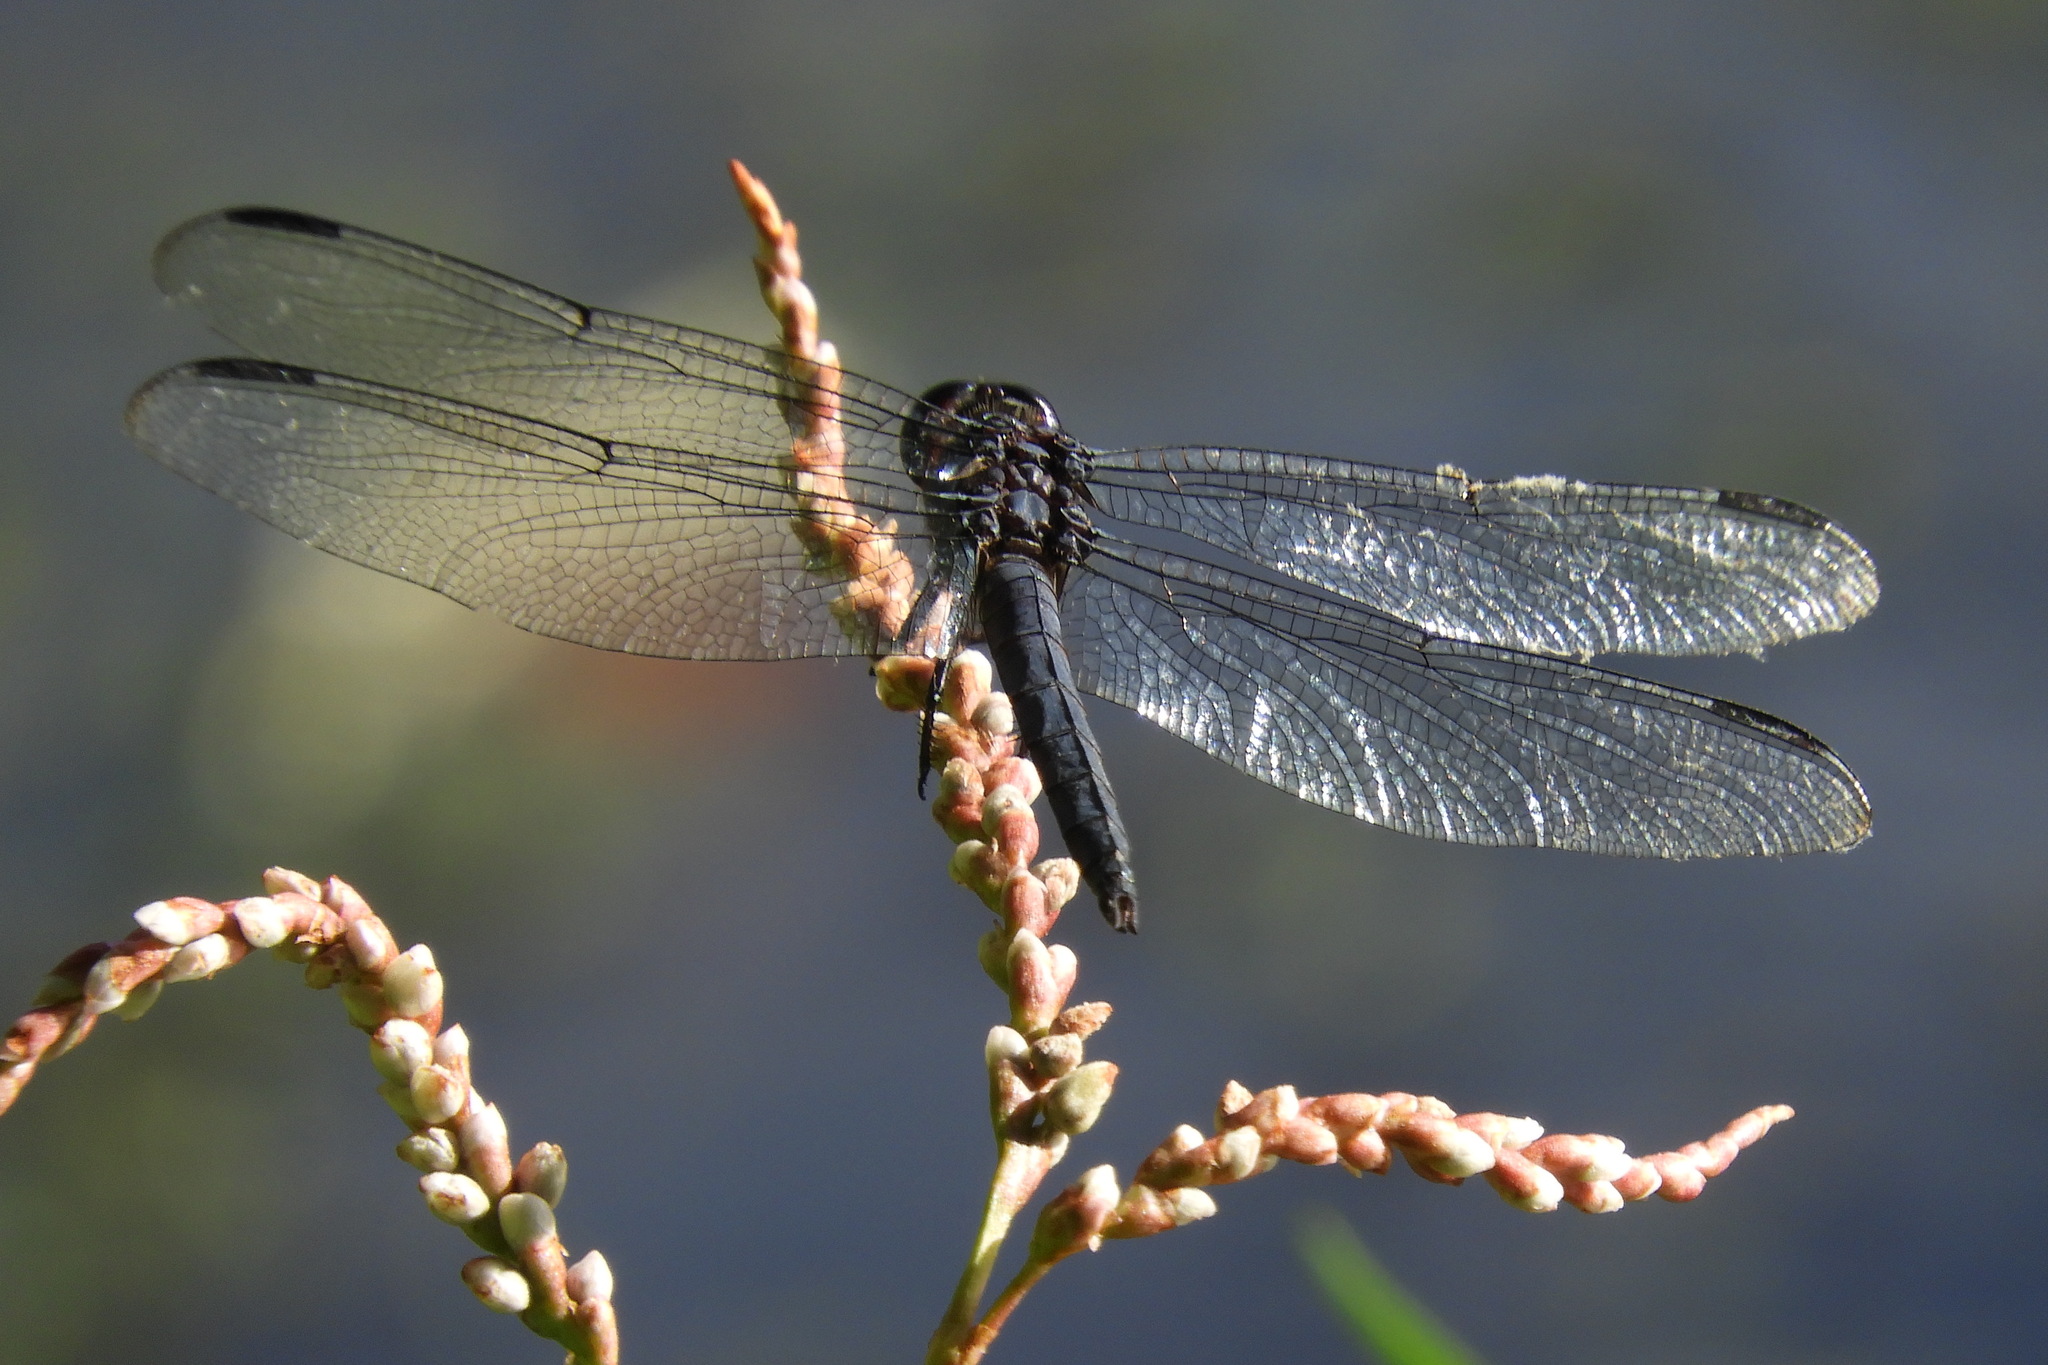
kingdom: Animalia
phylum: Arthropoda
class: Insecta
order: Odonata
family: Libellulidae
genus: Libellula
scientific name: Libellula incesta
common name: Slaty skimmer
